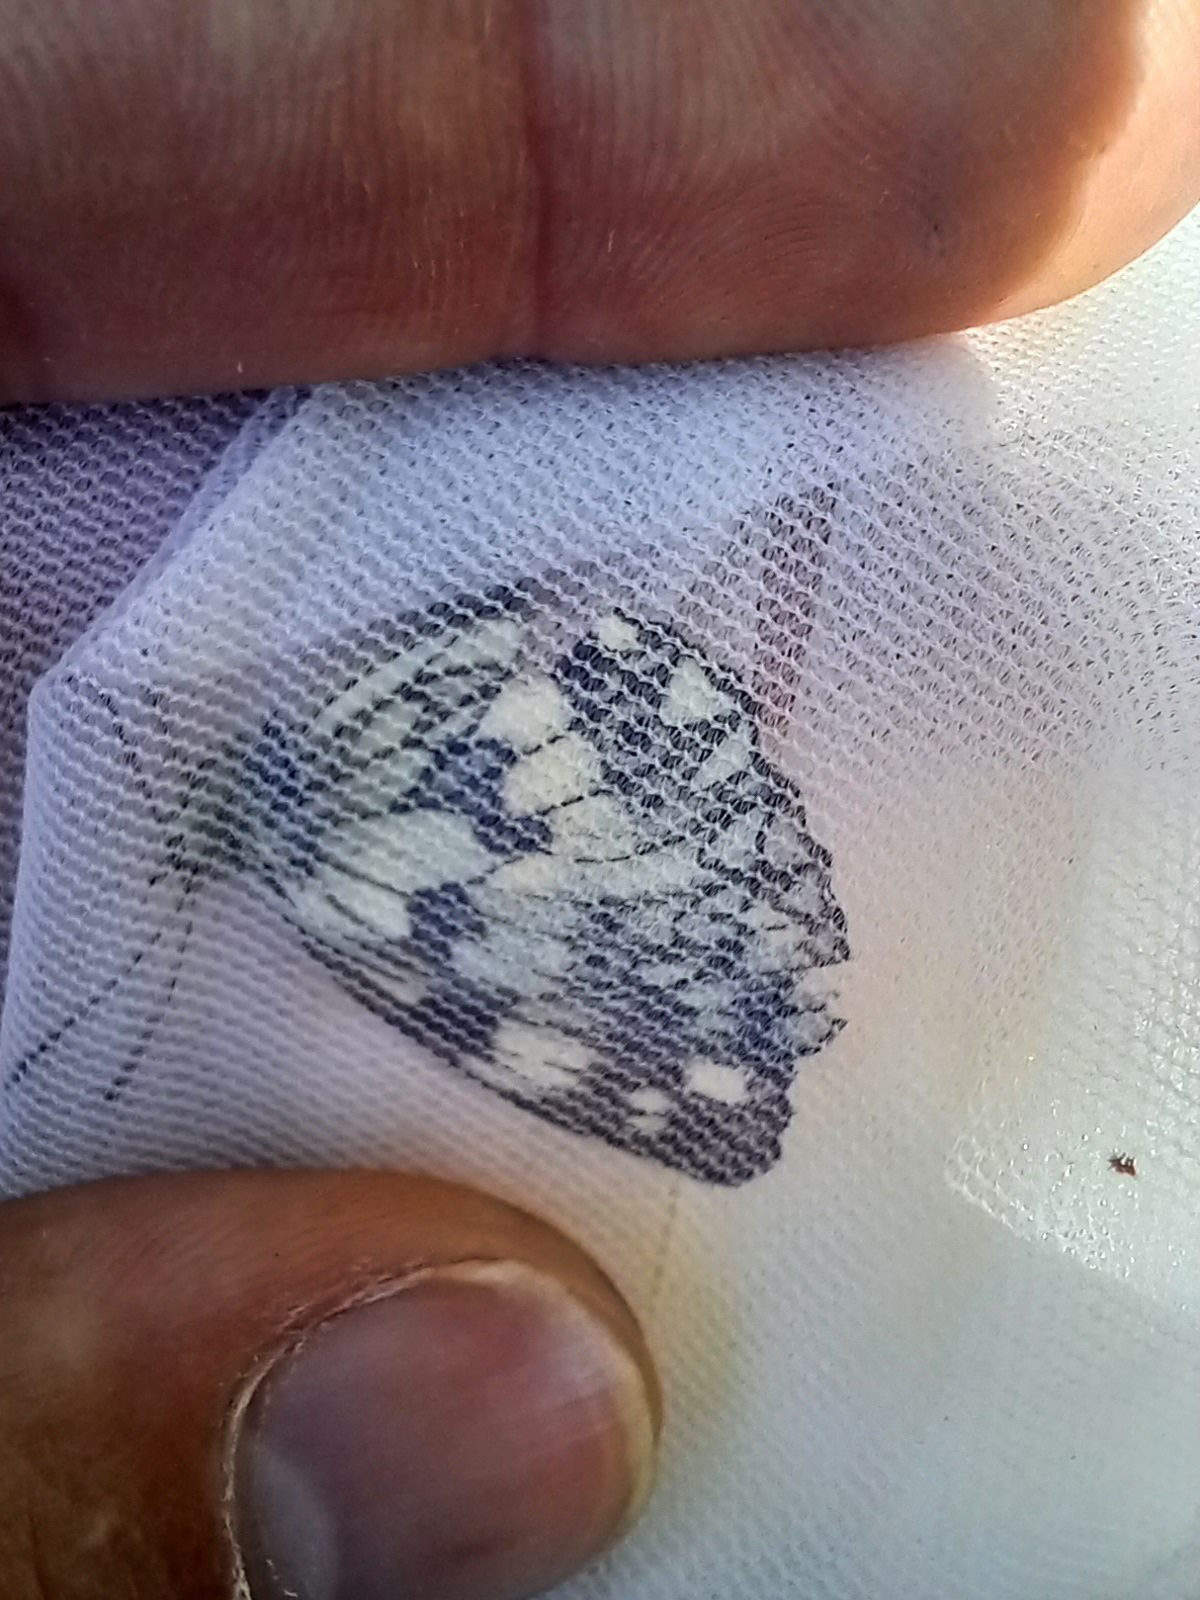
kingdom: Animalia
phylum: Arthropoda
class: Insecta
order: Lepidoptera
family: Nymphalidae
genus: Melanargia
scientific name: Melanargia galathea
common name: Marbled white
